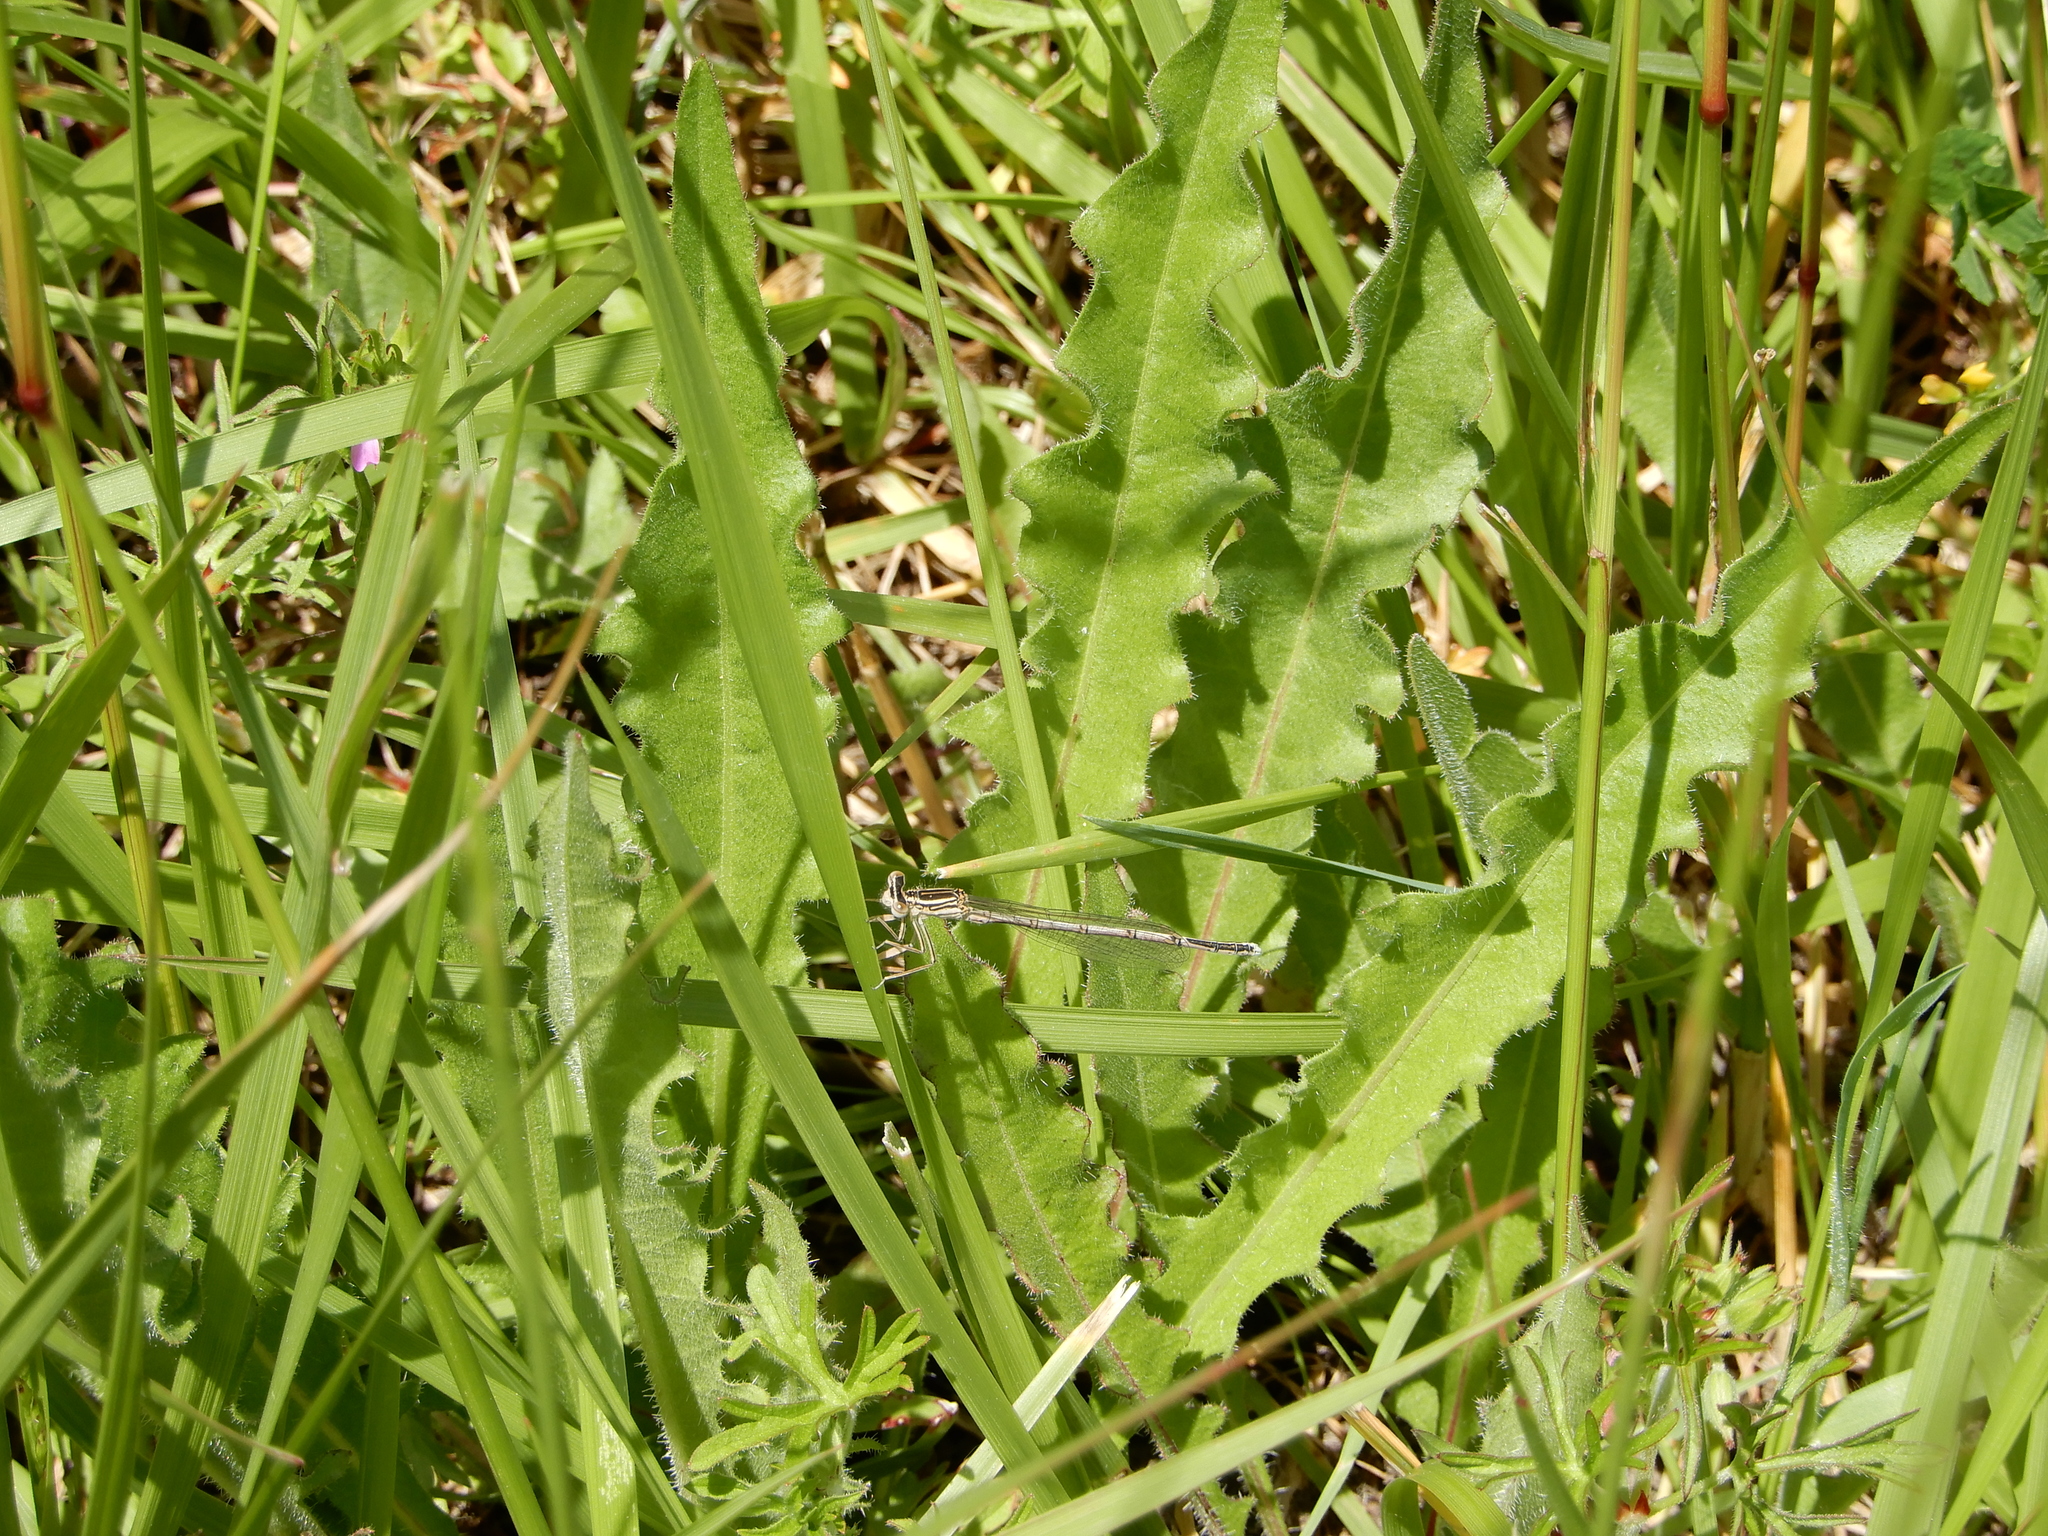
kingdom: Animalia
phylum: Arthropoda
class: Insecta
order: Odonata
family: Platycnemididae
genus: Platycnemis
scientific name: Platycnemis pennipes
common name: White-legged damselfly
